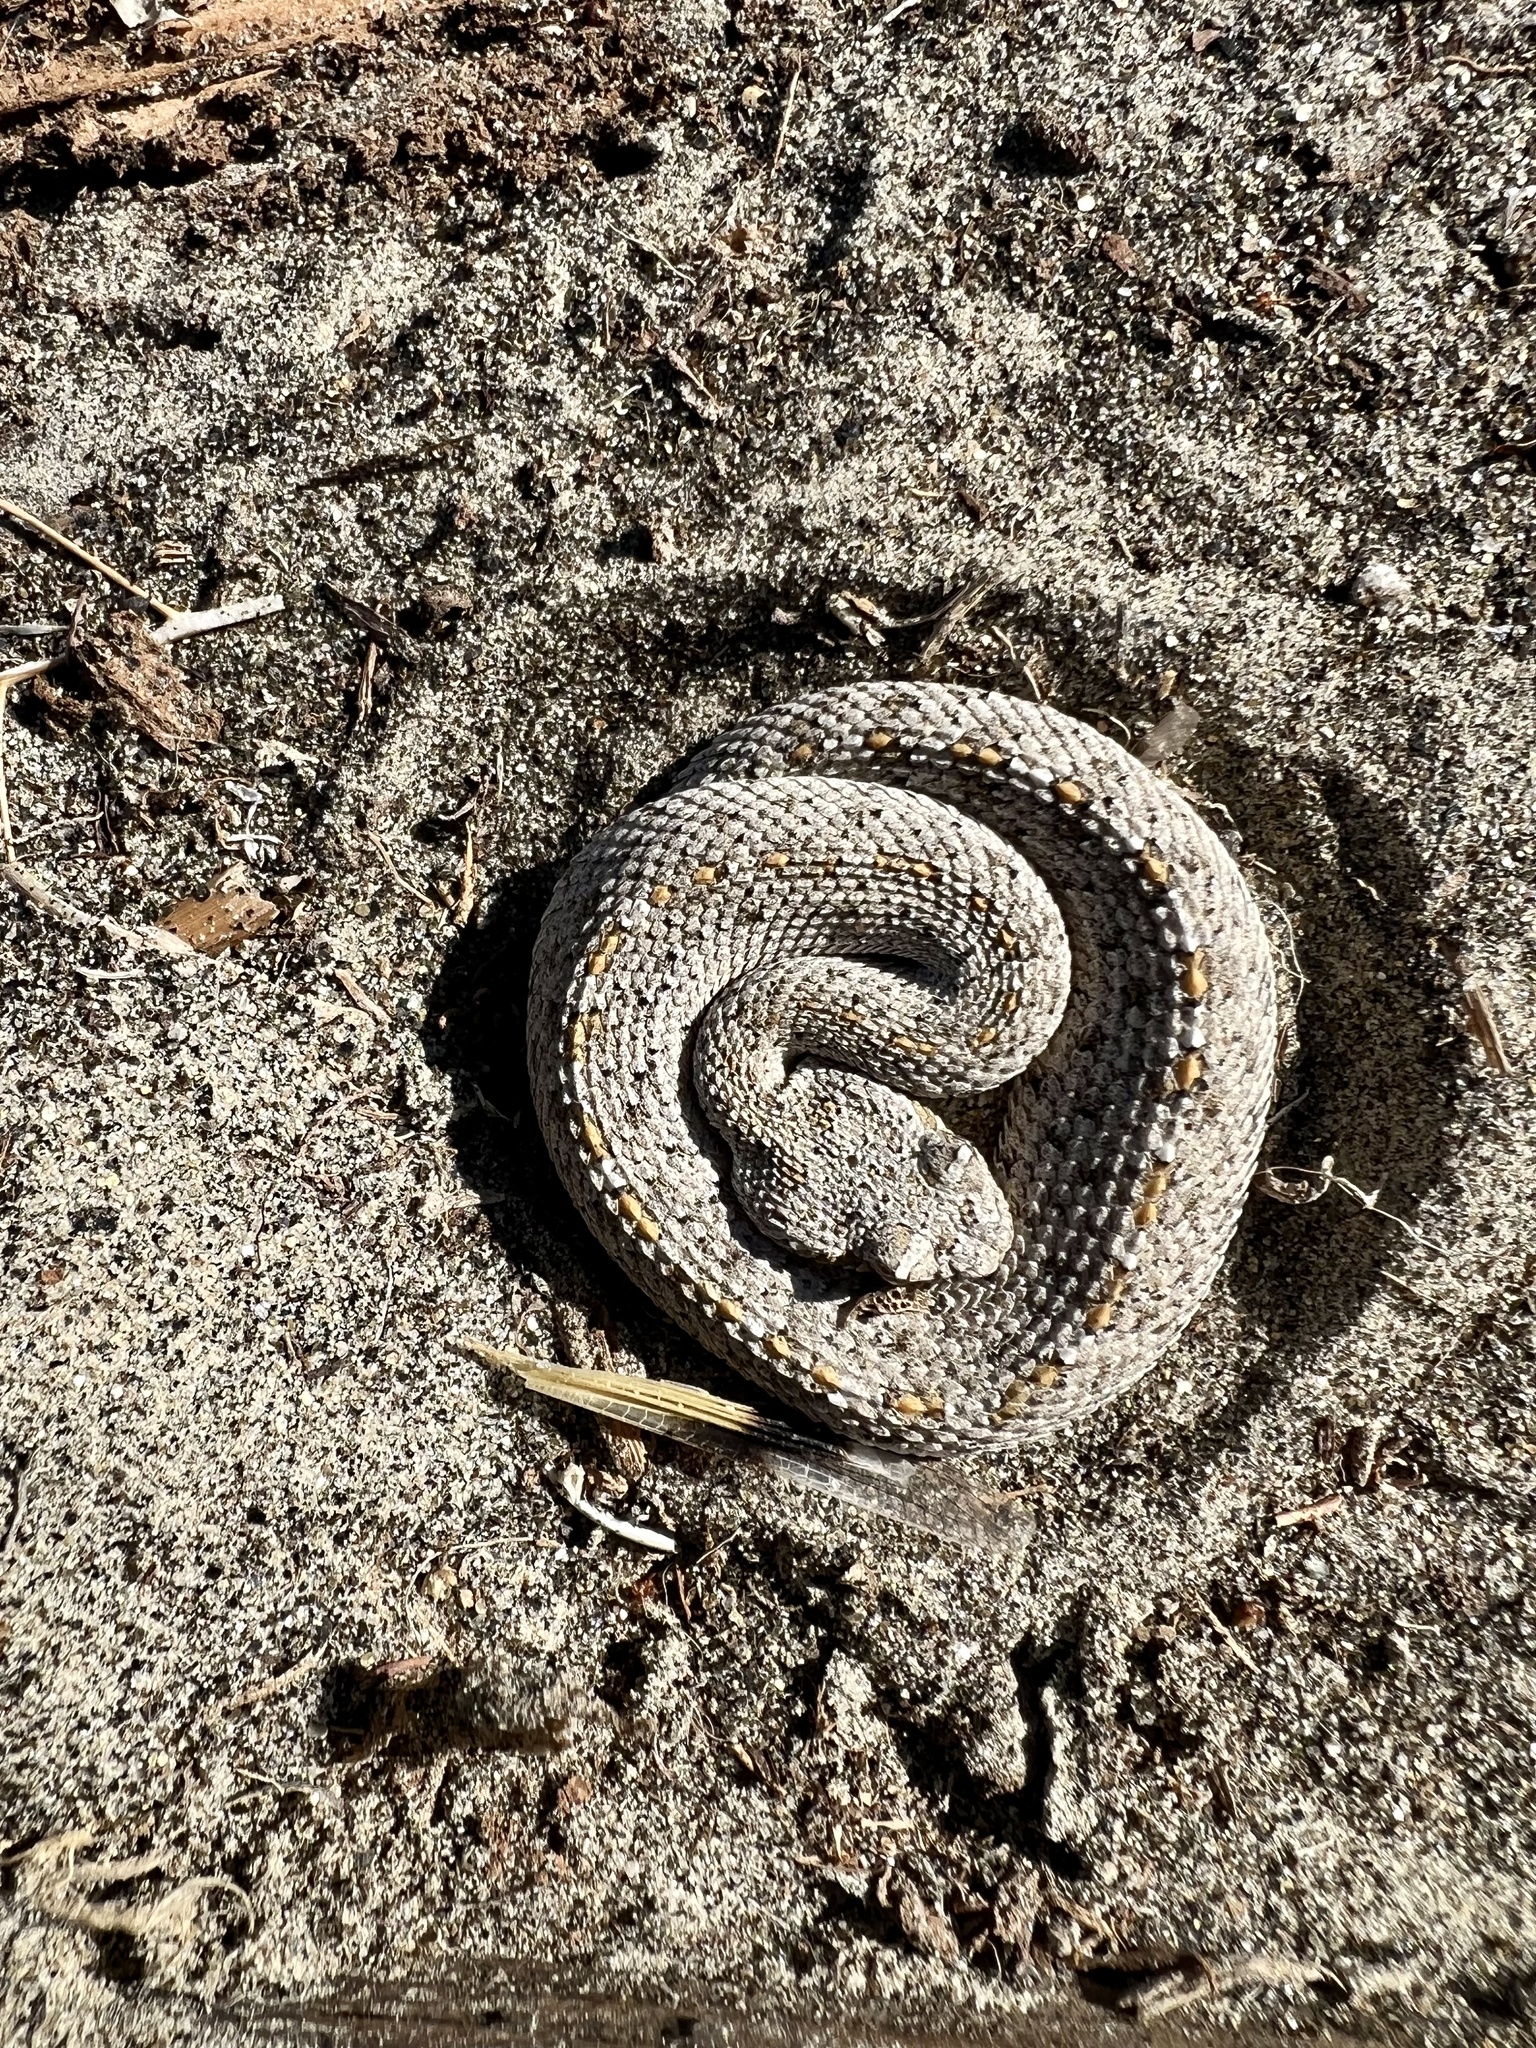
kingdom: Animalia
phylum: Chordata
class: Squamata
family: Viperidae
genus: Crotalus
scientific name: Crotalus cerastes
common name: Sidewinder
